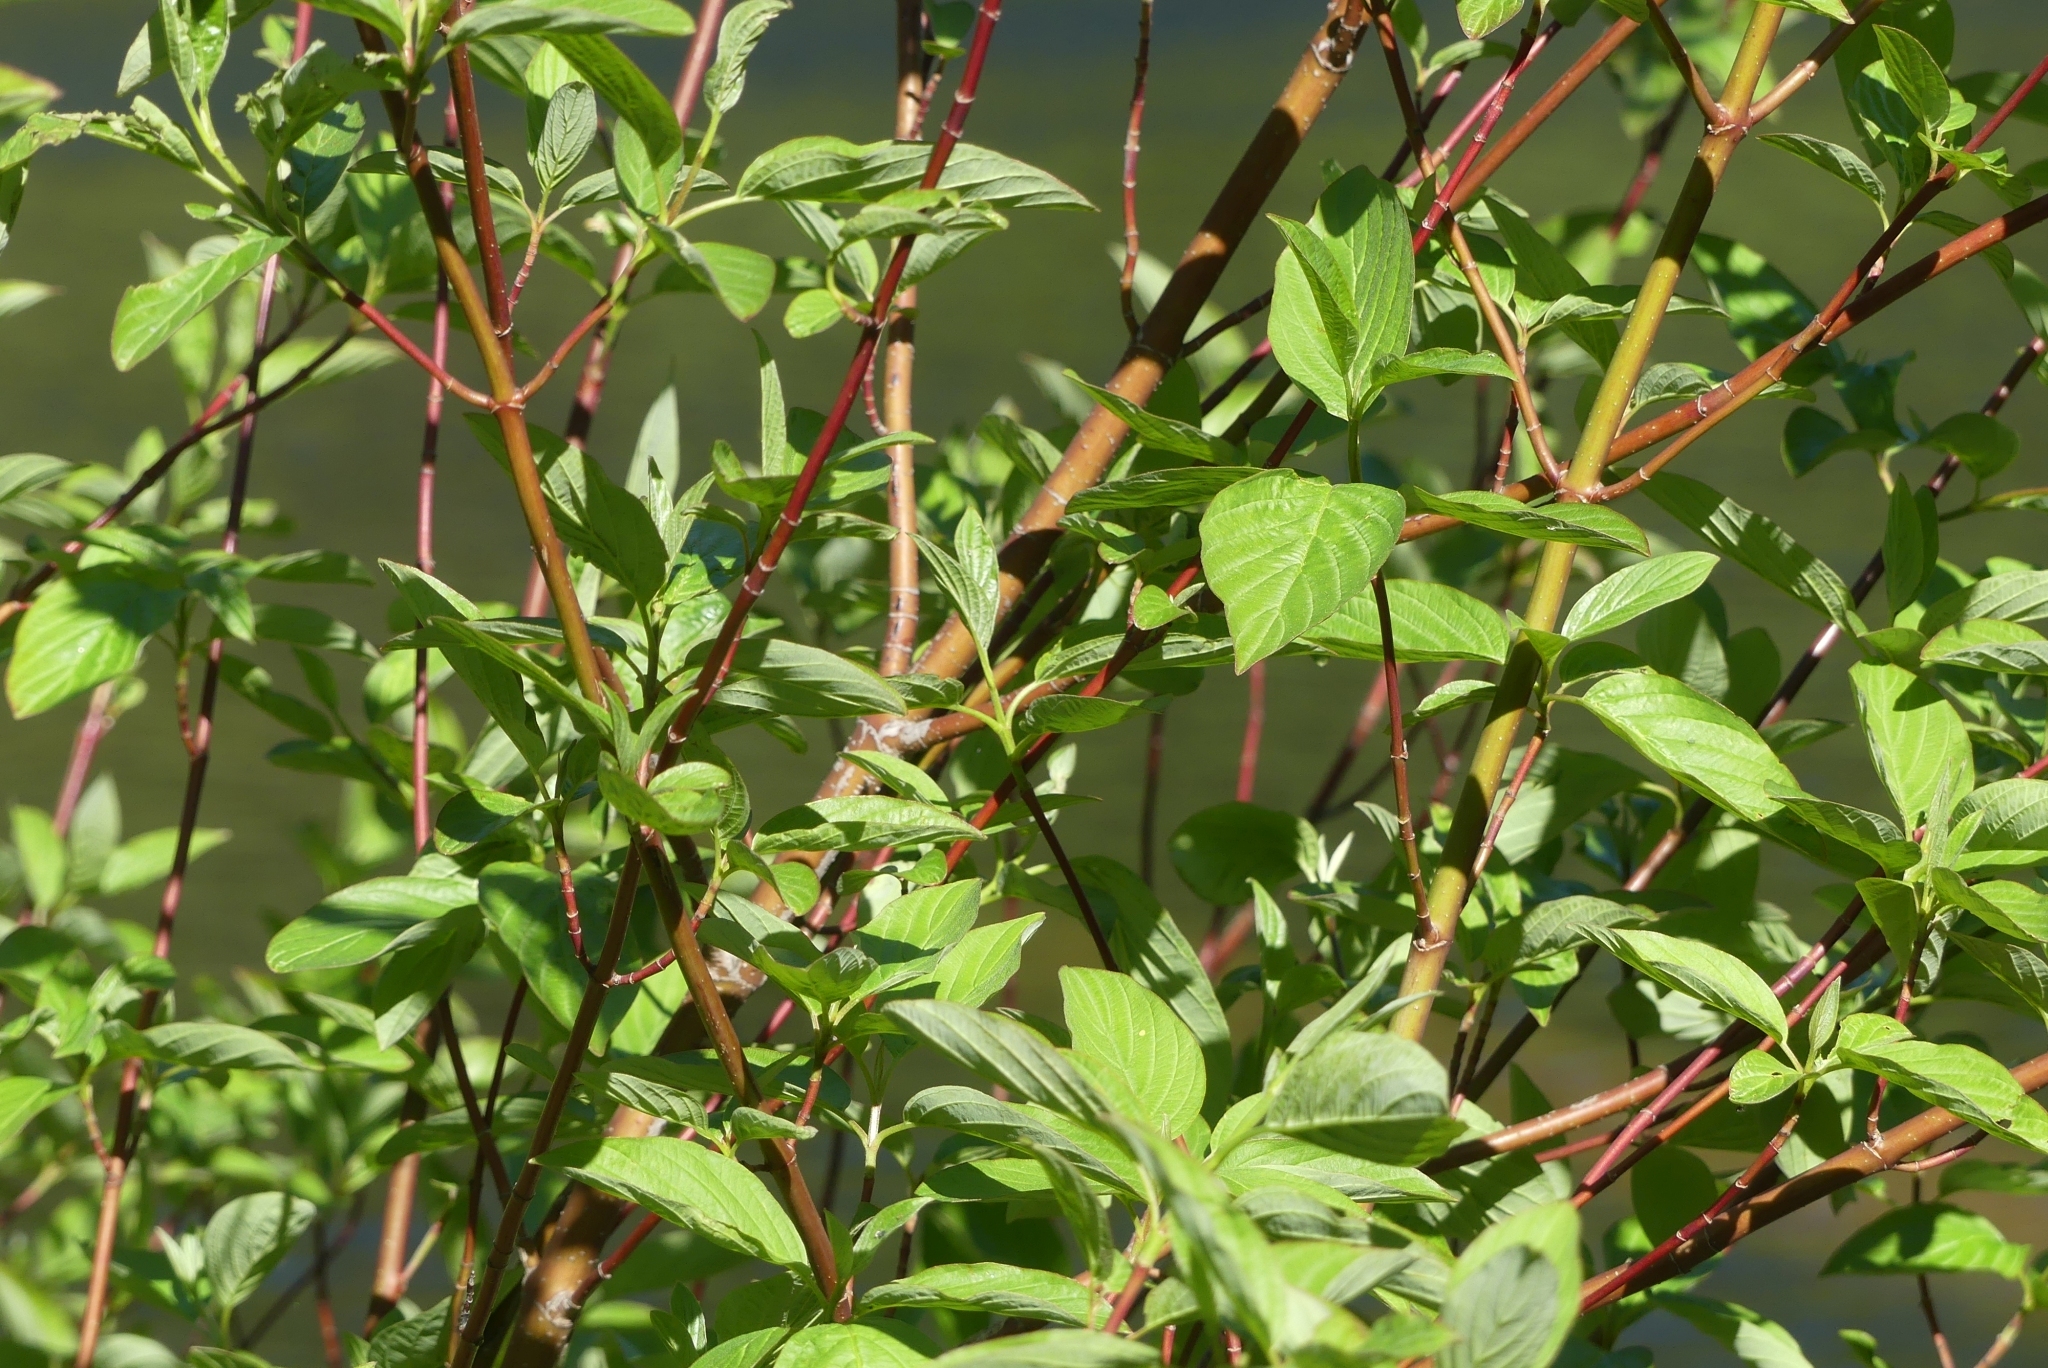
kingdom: Plantae
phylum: Tracheophyta
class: Magnoliopsida
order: Cornales
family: Cornaceae
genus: Cornus
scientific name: Cornus sericea
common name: Red-osier dogwood
